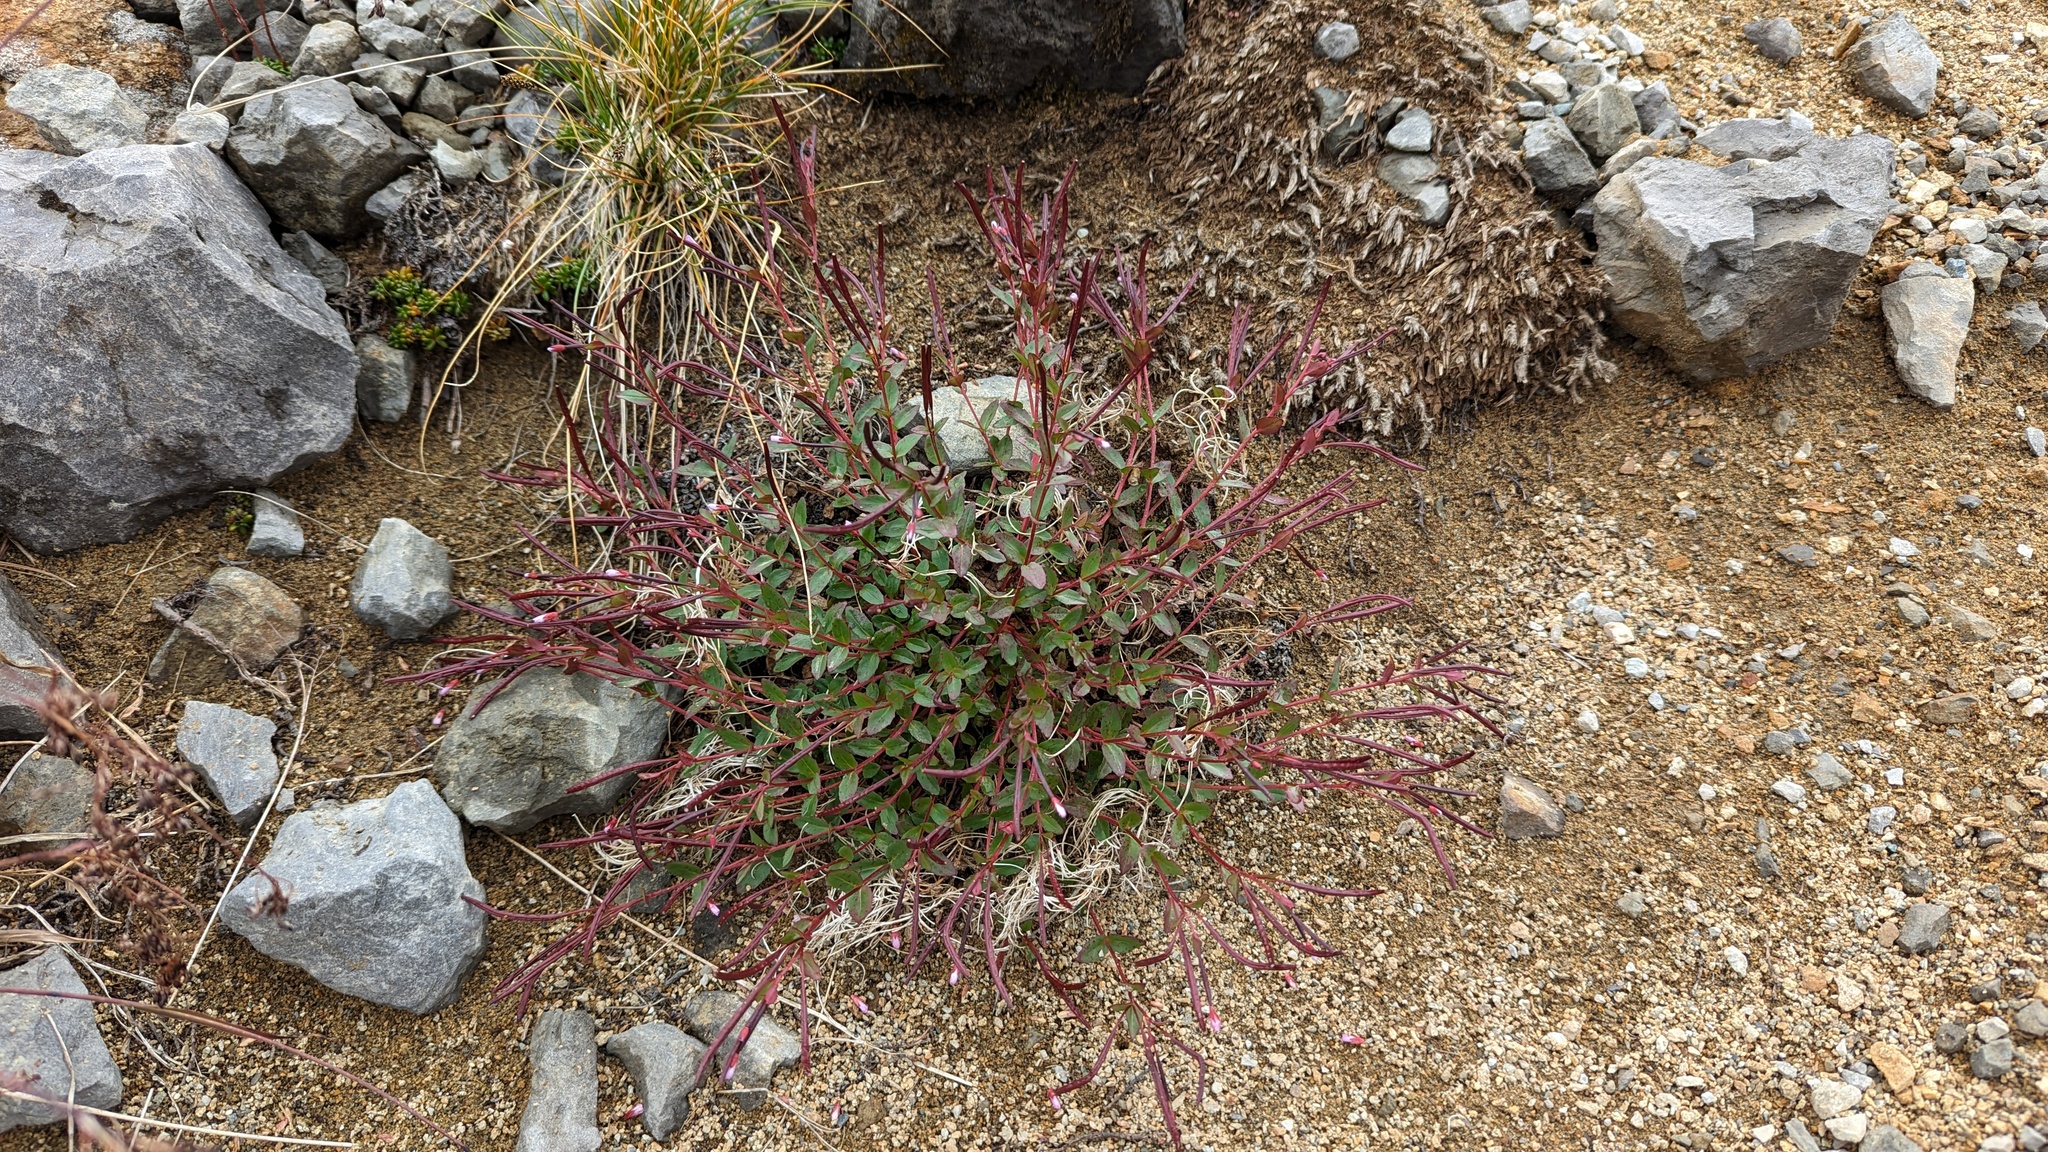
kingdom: Plantae
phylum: Tracheophyta
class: Magnoliopsida
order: Myrtales
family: Onagraceae
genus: Epilobium
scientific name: Epilobium anagallidifolium
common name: Alpine willowherb
